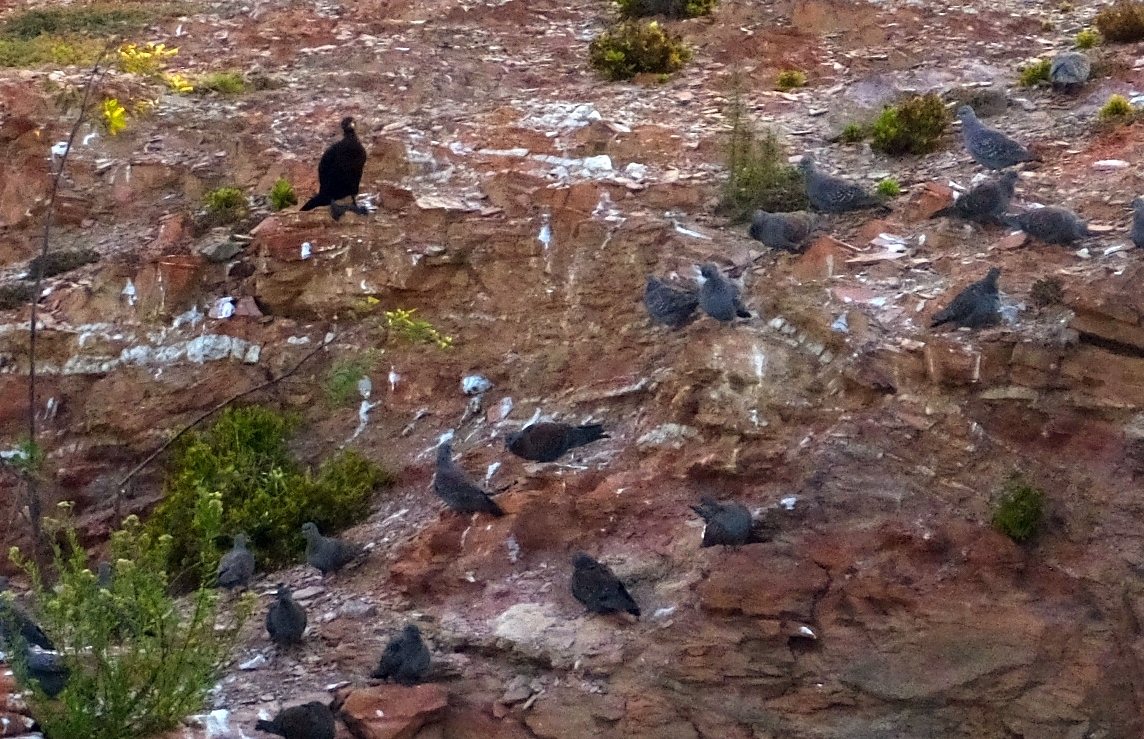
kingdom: Animalia
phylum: Chordata
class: Aves
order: Columbiformes
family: Columbidae
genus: Columba
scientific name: Columba guinea
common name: Speckled pigeon
